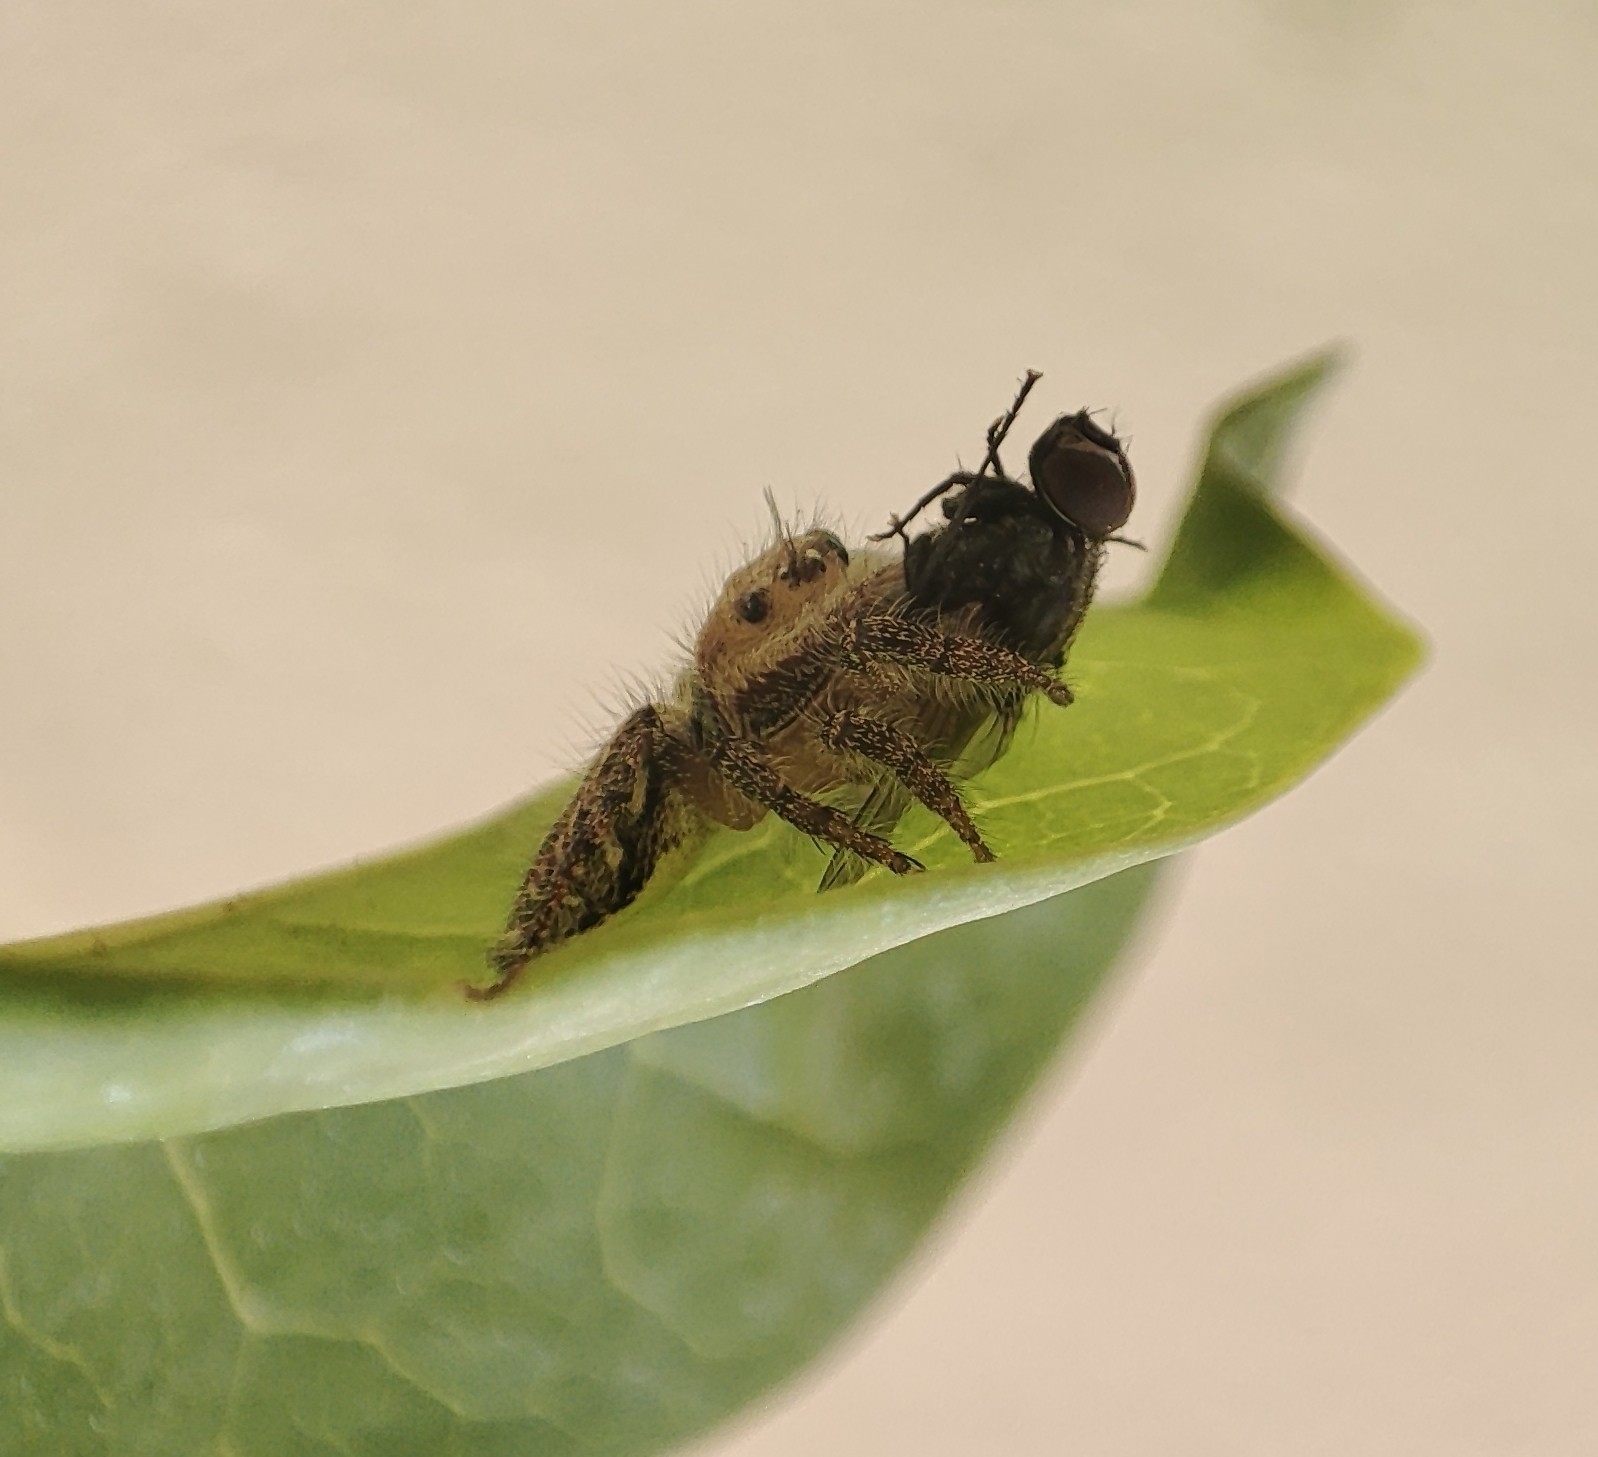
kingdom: Animalia
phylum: Arthropoda
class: Arachnida
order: Araneae
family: Salticidae
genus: Hyllus
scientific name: Hyllus semicupreus
